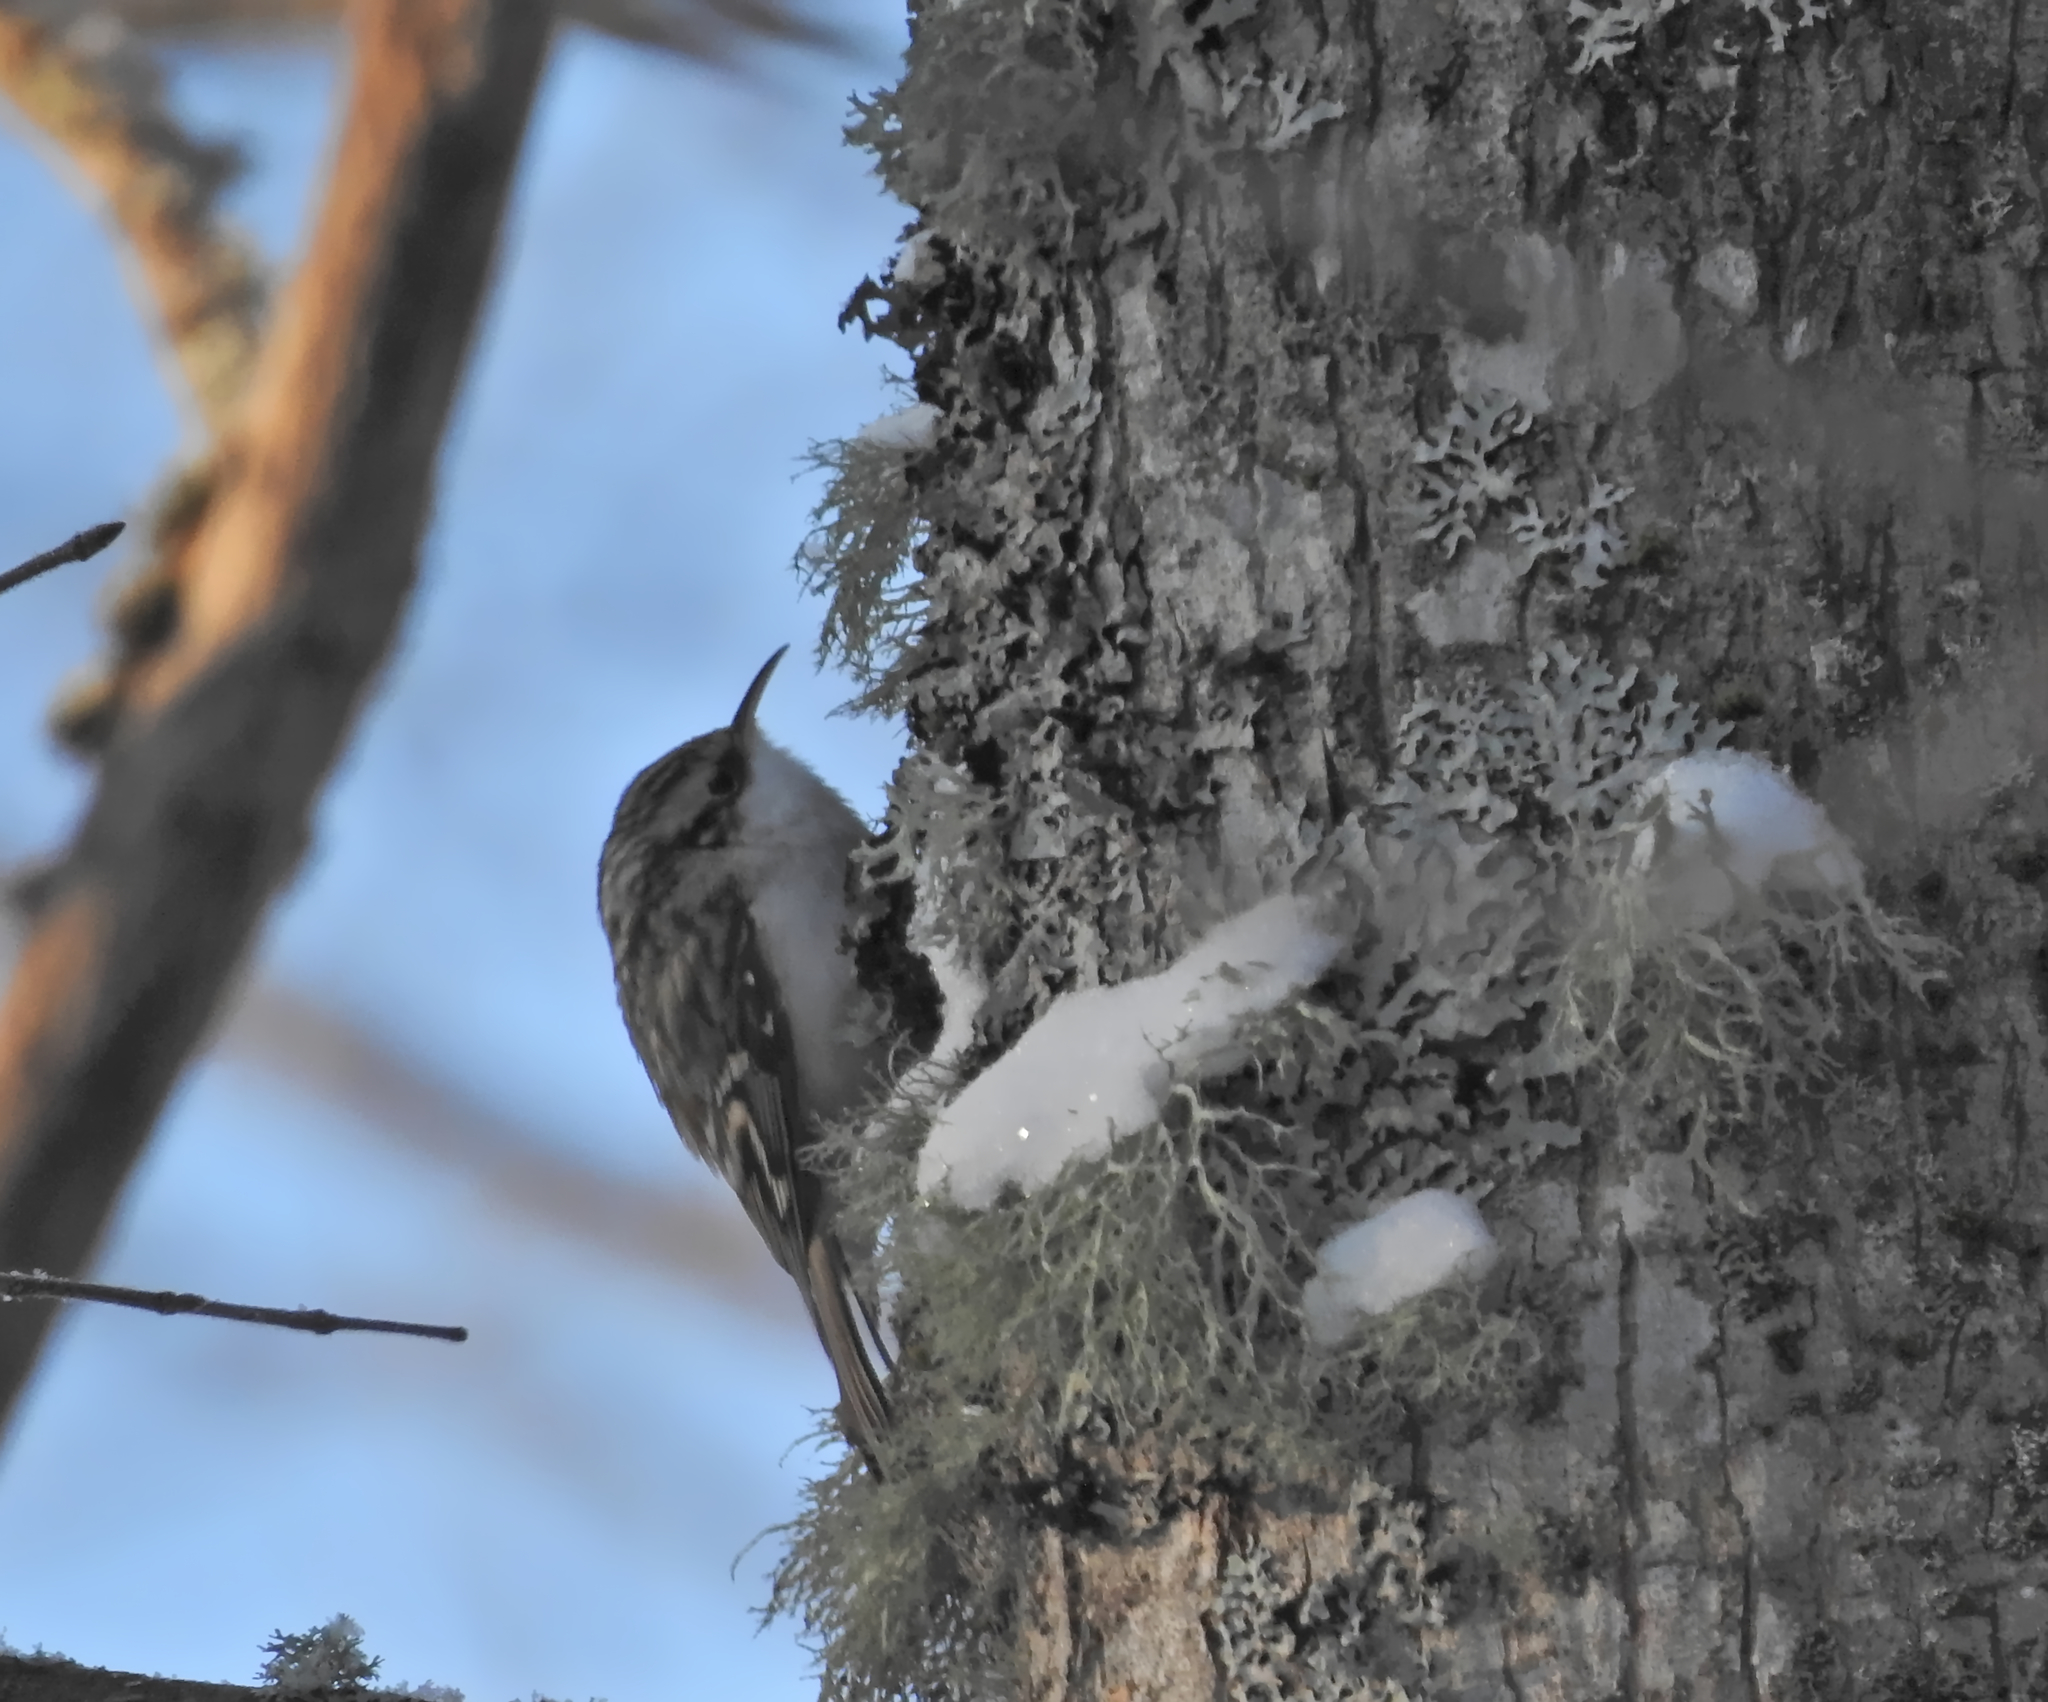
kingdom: Animalia
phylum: Chordata
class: Aves
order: Passeriformes
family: Certhiidae
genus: Certhia
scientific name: Certhia familiaris
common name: Eurasian treecreeper
